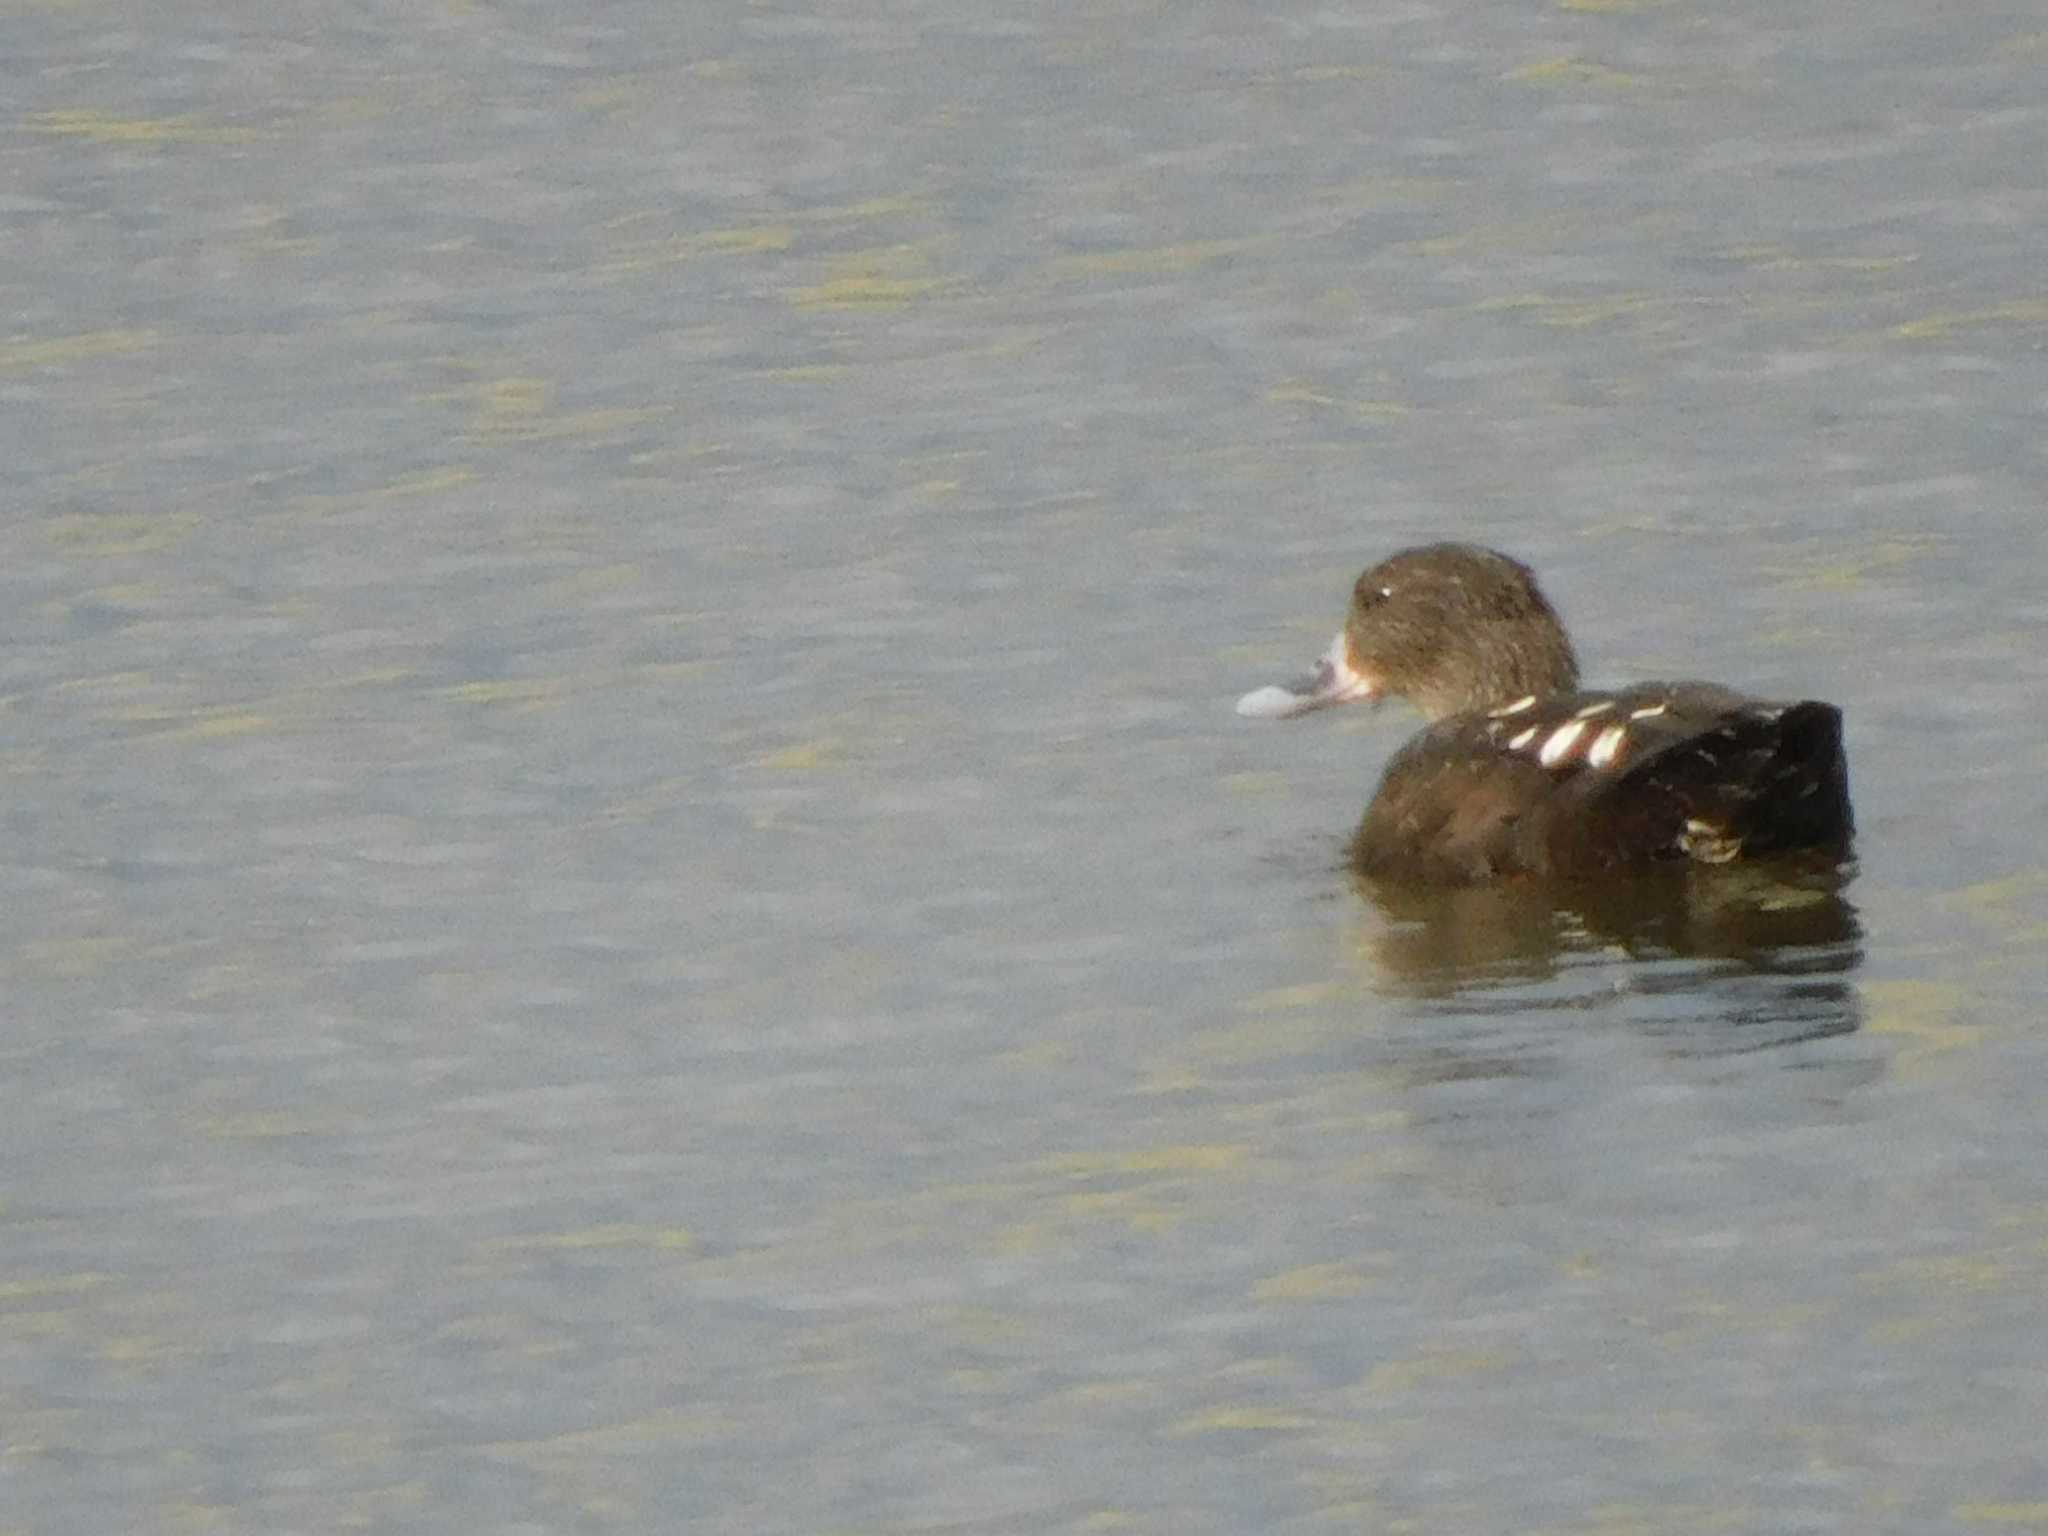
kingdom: Animalia
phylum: Chordata
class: Aves
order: Anseriformes
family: Anatidae
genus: Anas
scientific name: Anas sparsa
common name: African black duck
